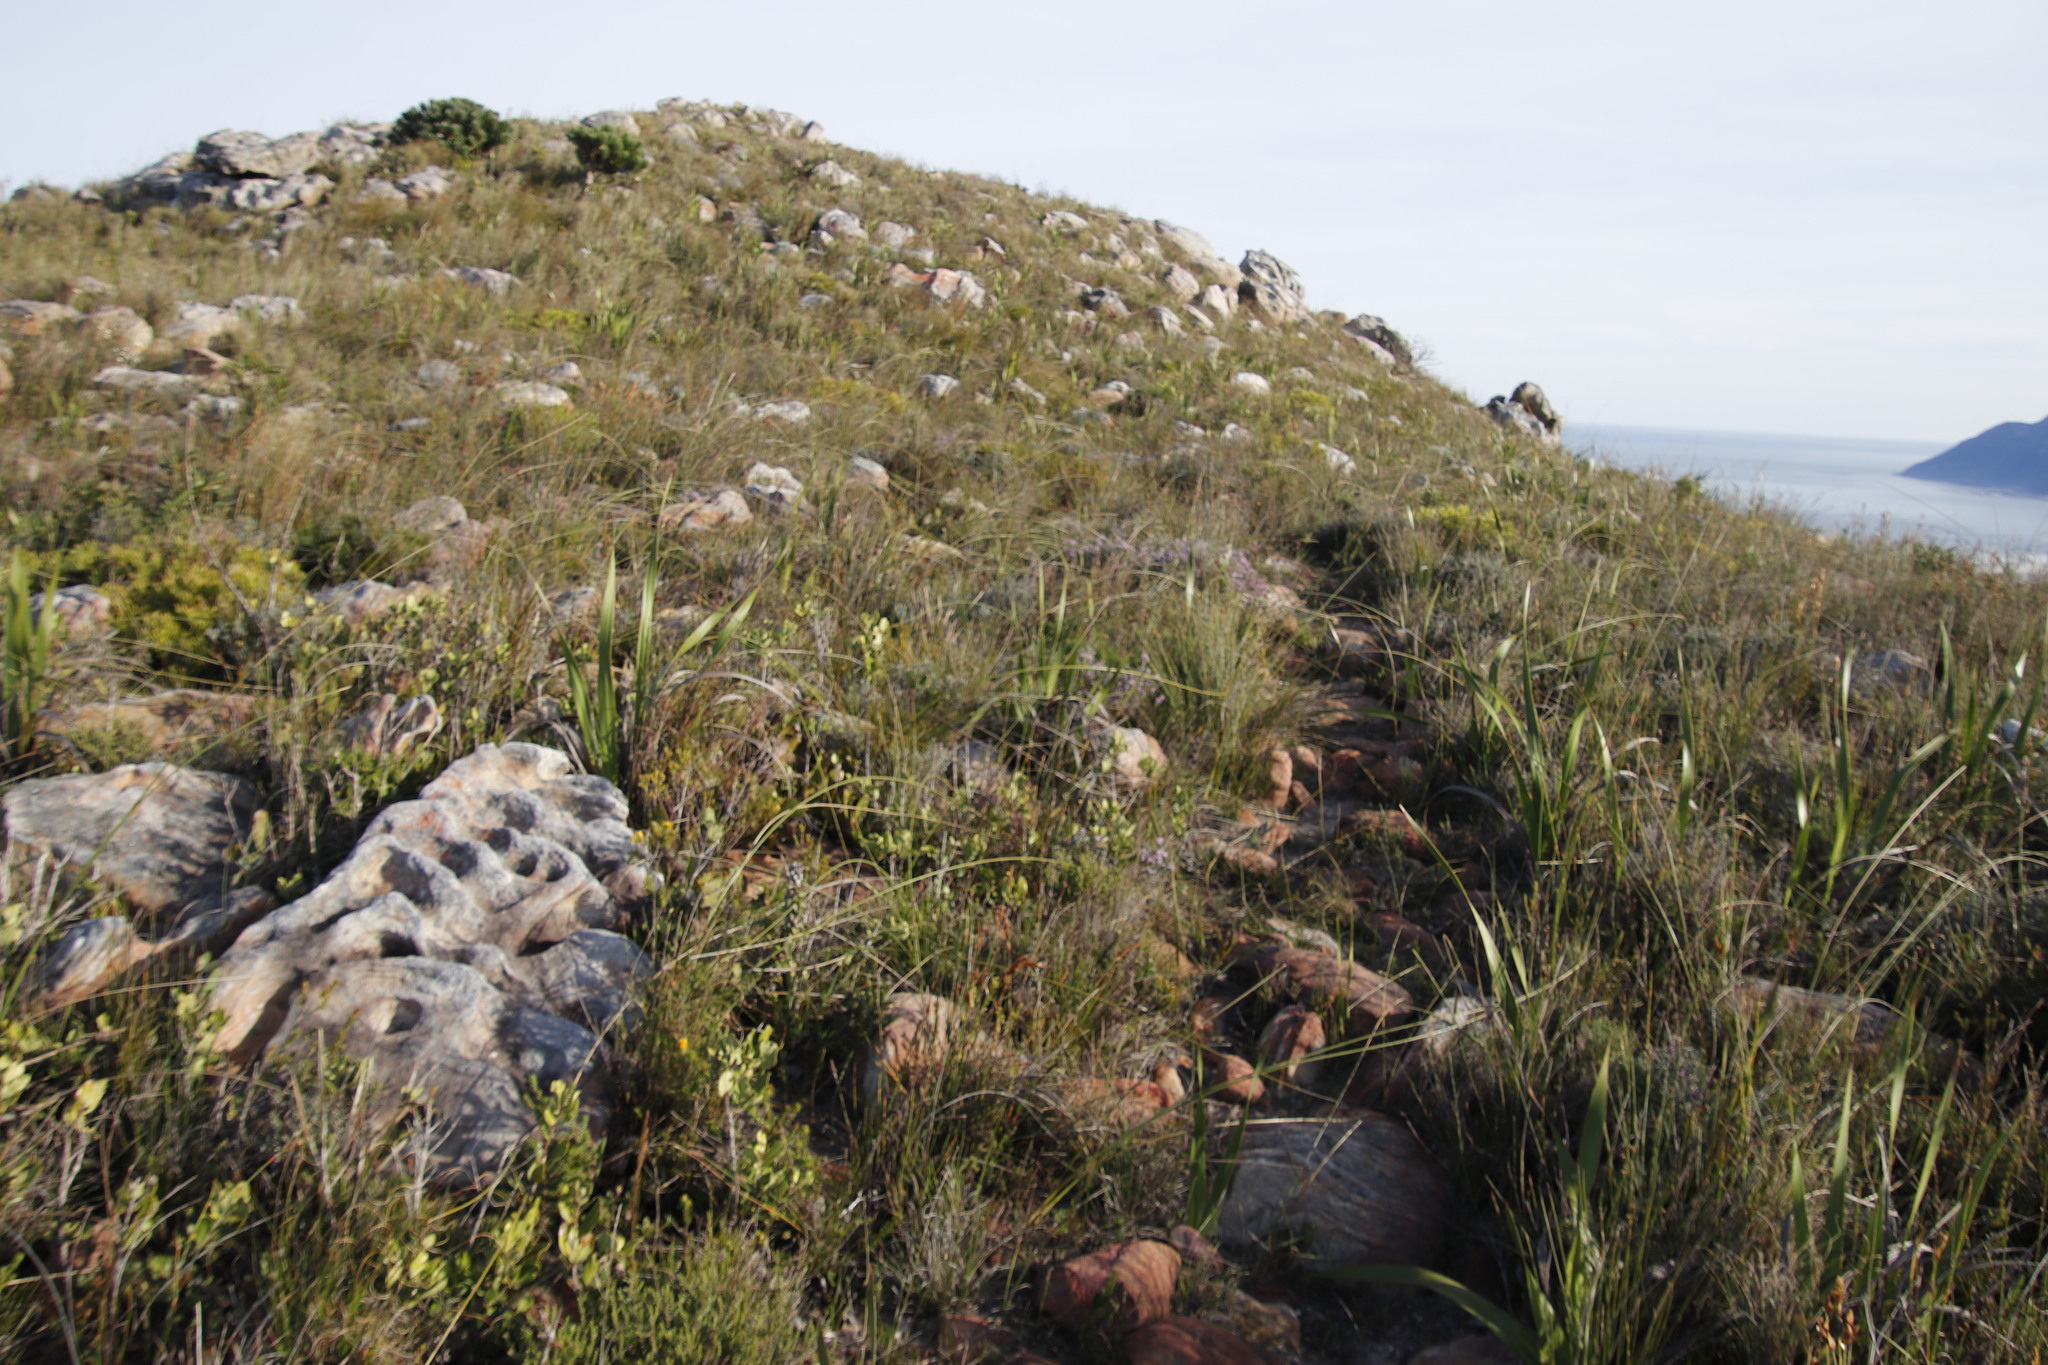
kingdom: Plantae
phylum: Tracheophyta
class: Liliopsida
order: Asparagales
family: Iridaceae
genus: Bobartia
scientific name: Bobartia indica
